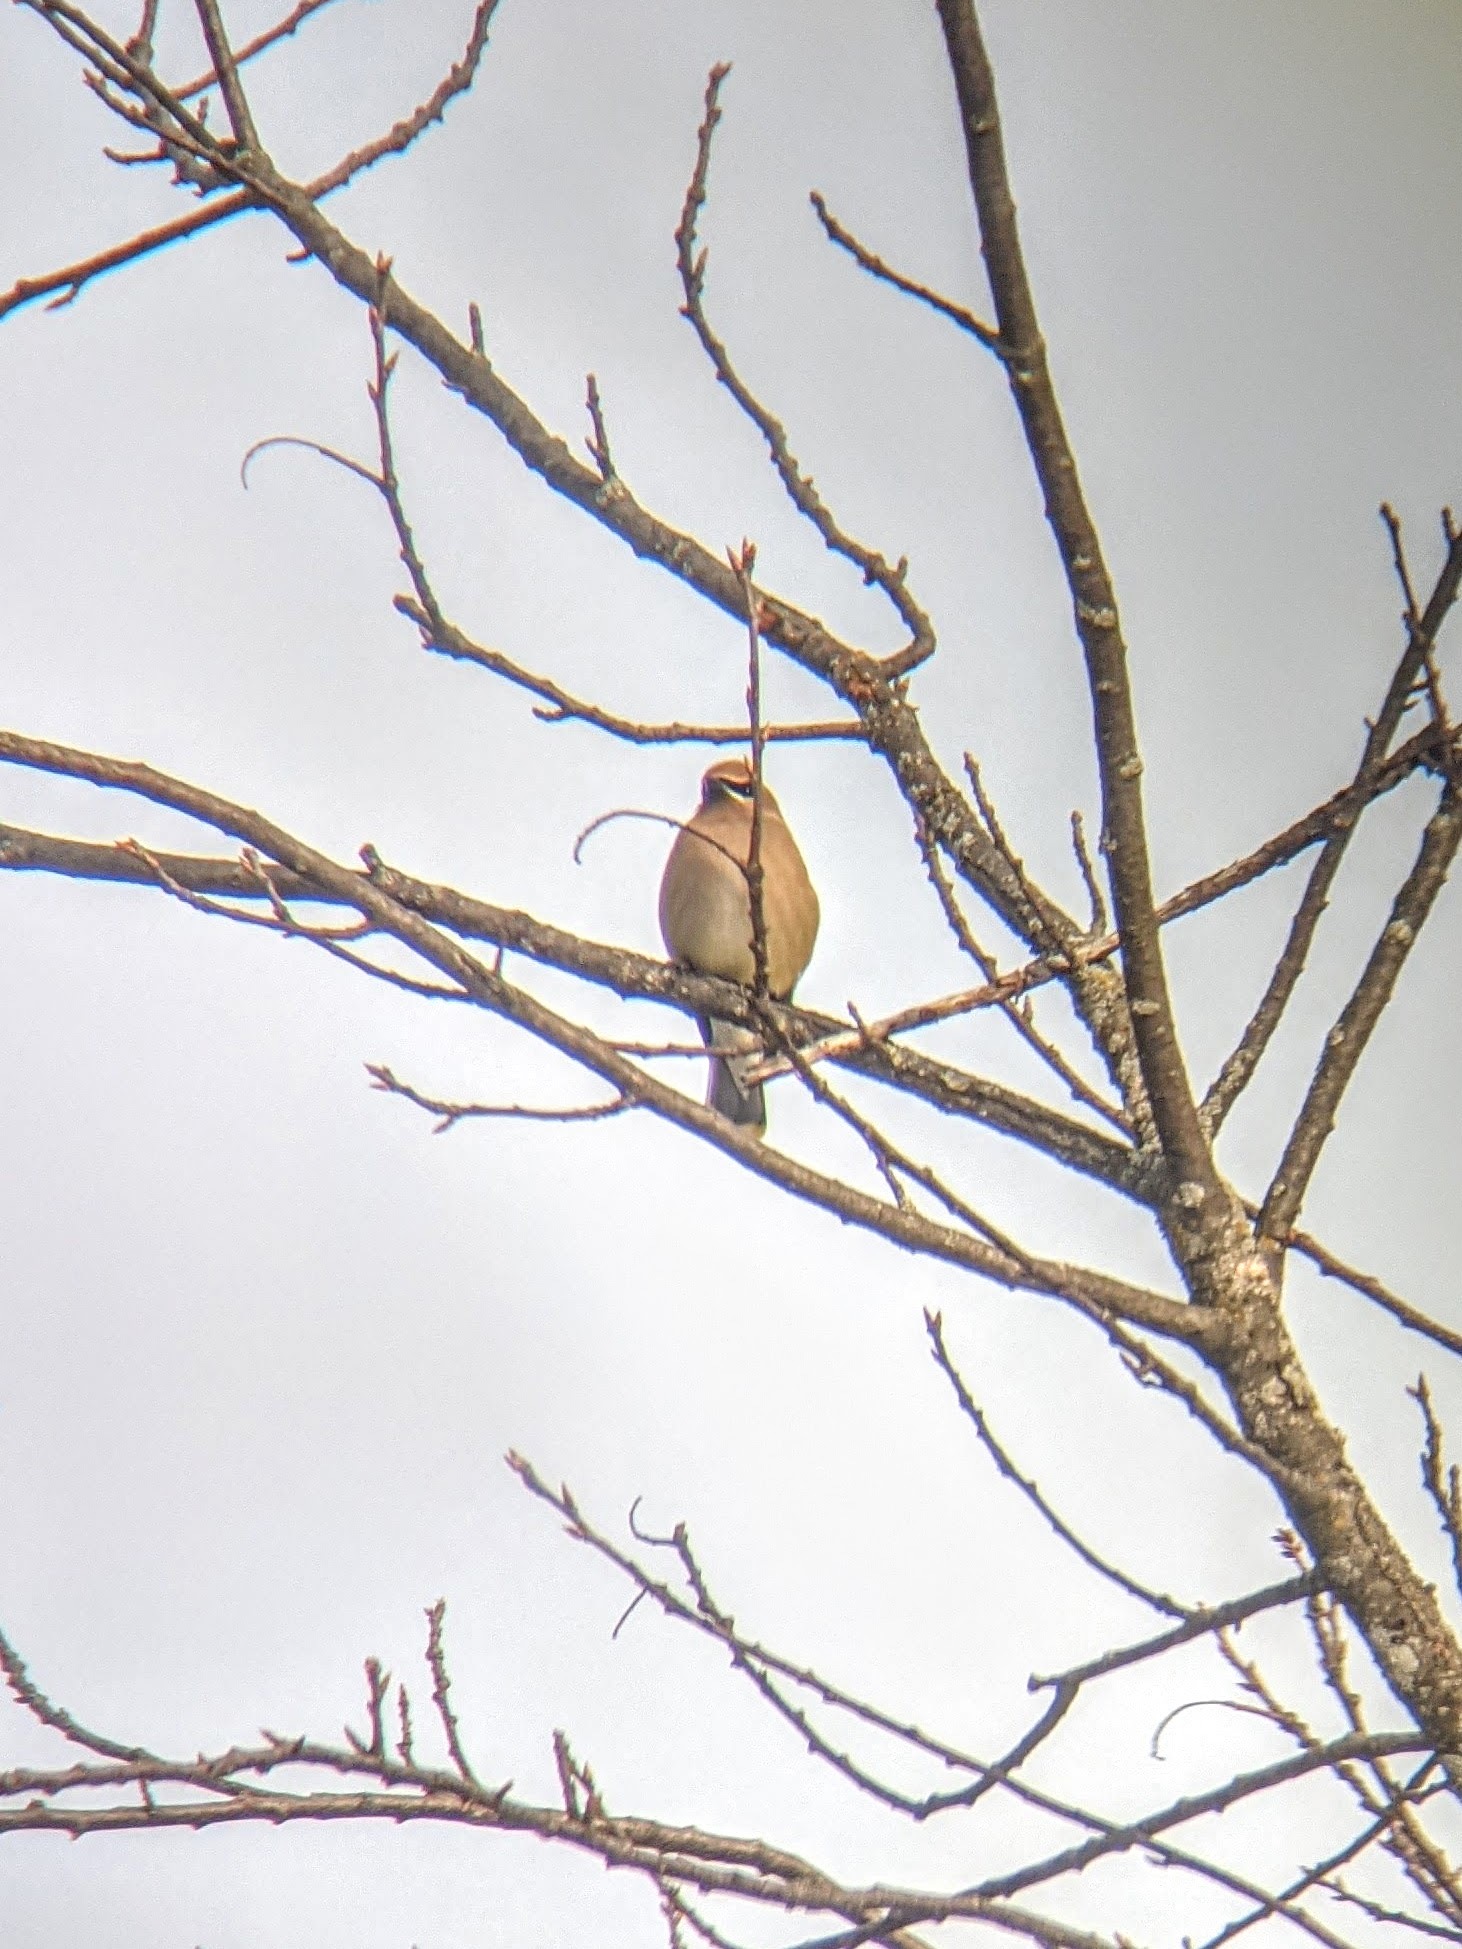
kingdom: Animalia
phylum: Chordata
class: Aves
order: Passeriformes
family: Bombycillidae
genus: Bombycilla
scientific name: Bombycilla cedrorum
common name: Cedar waxwing
